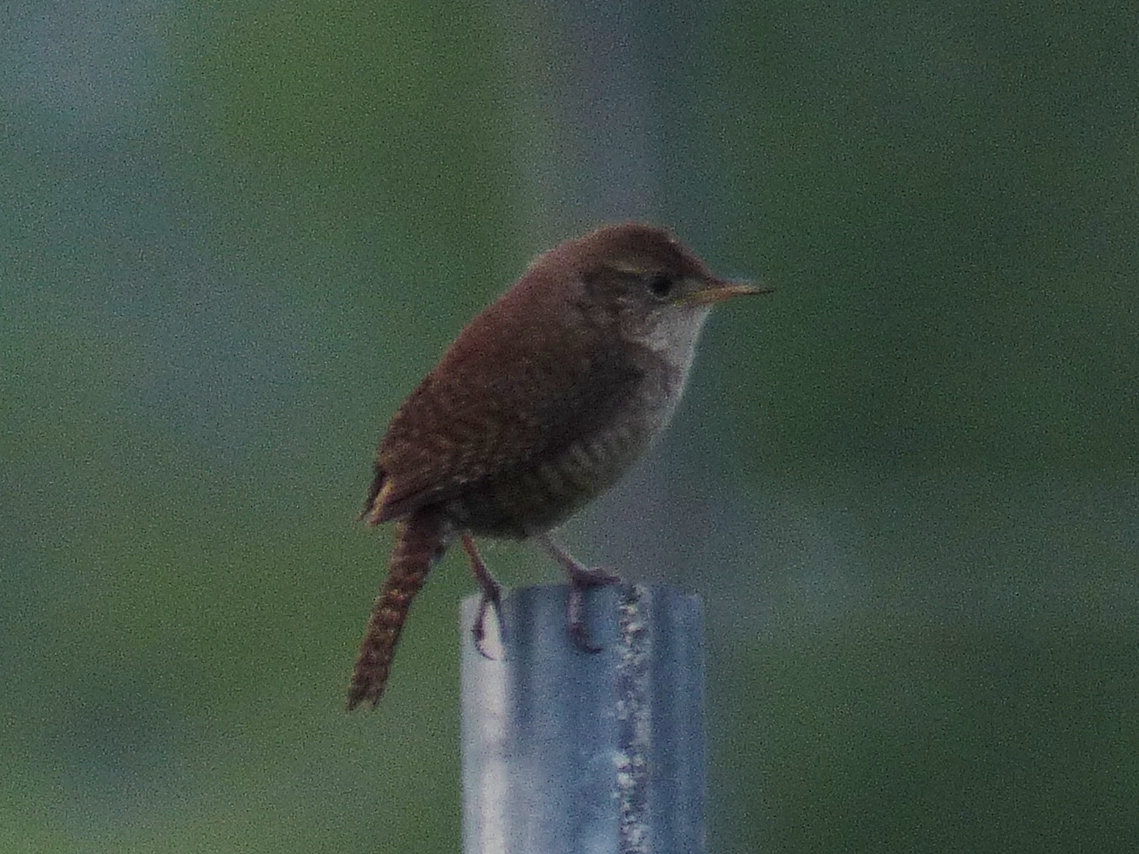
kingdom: Animalia
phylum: Chordata
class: Aves
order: Passeriformes
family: Troglodytidae
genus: Troglodytes
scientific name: Troglodytes aedon
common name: House wren
